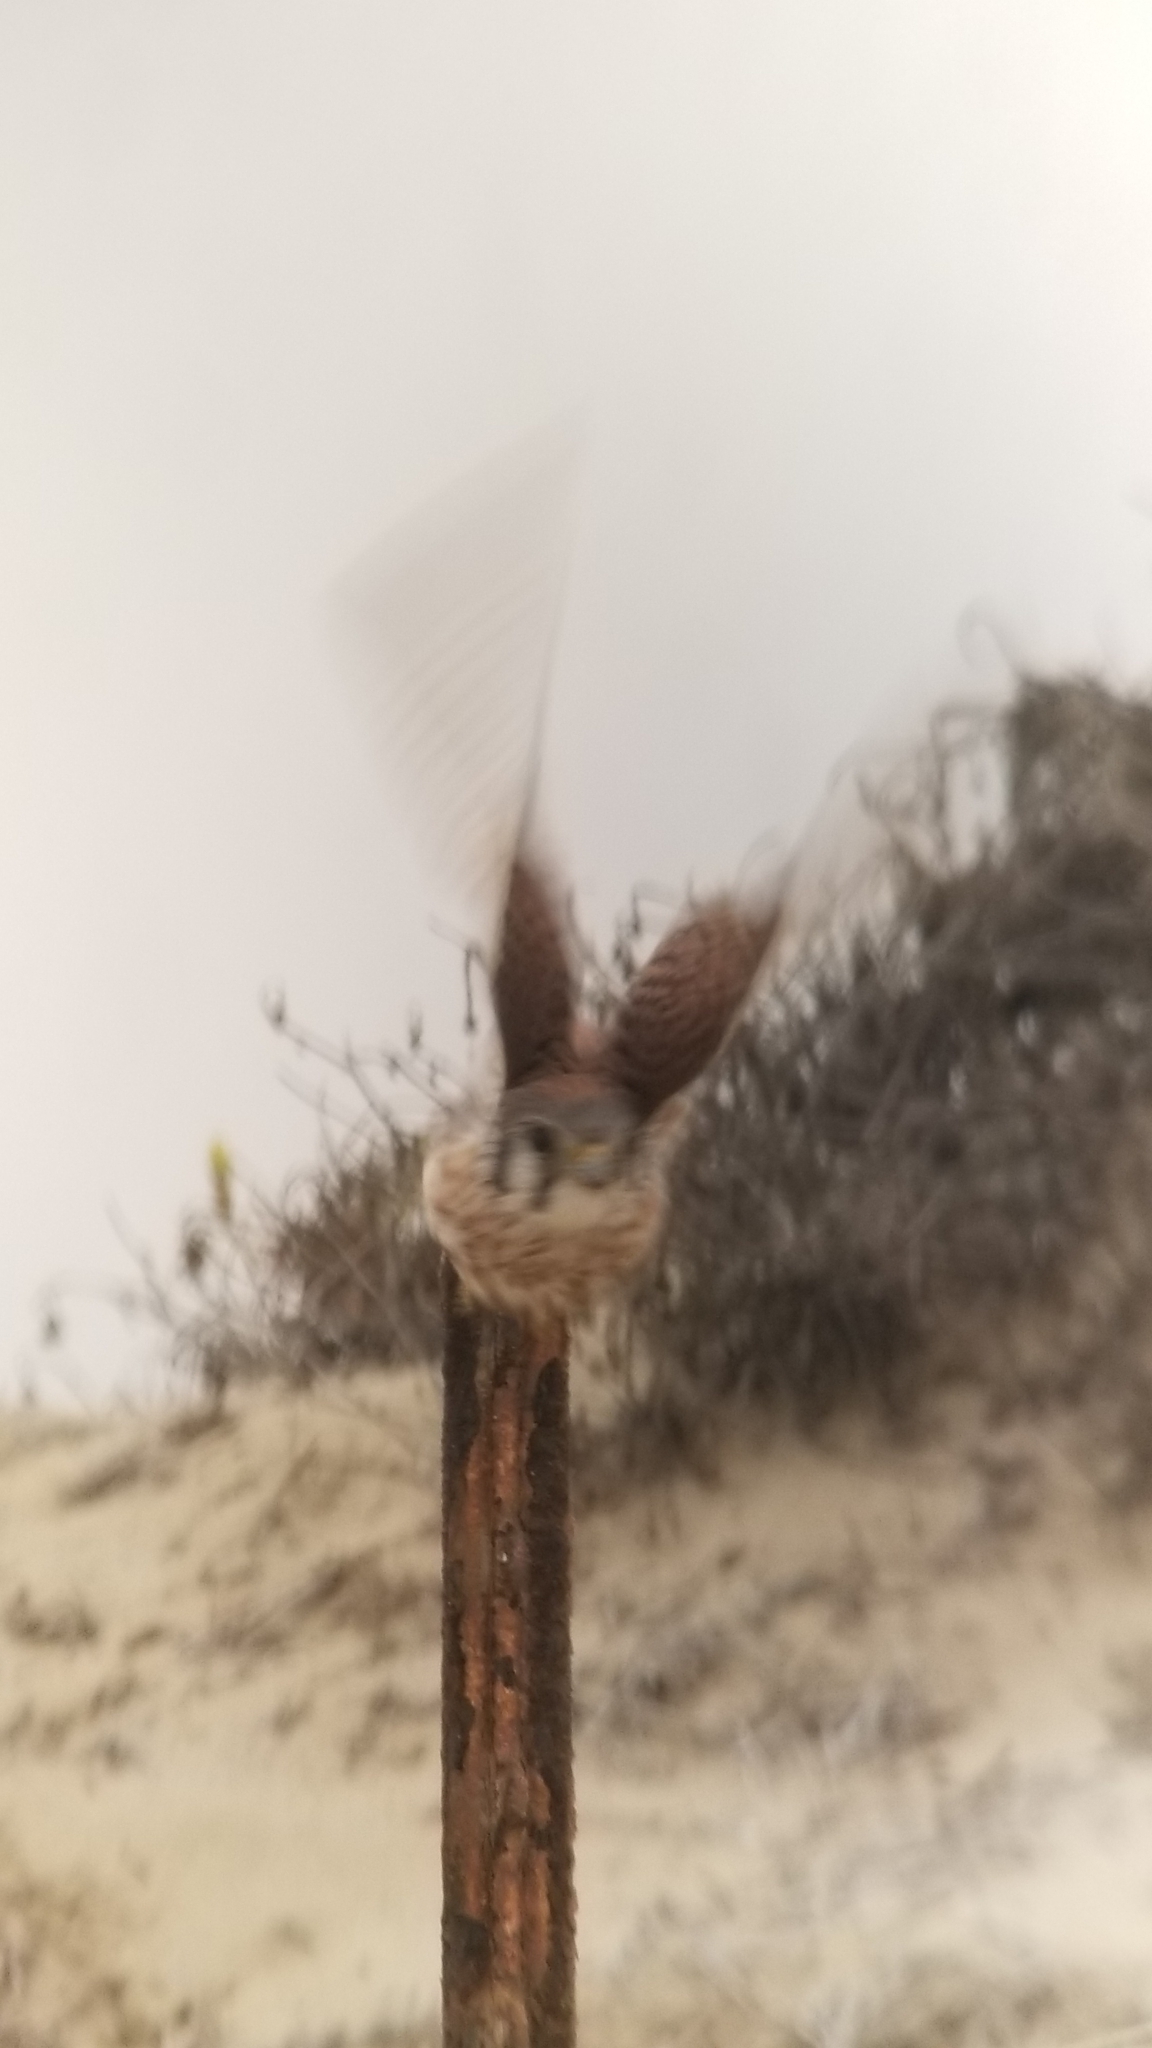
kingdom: Animalia
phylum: Chordata
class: Aves
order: Falconiformes
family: Falconidae
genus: Falco
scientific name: Falco sparverius
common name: American kestrel
